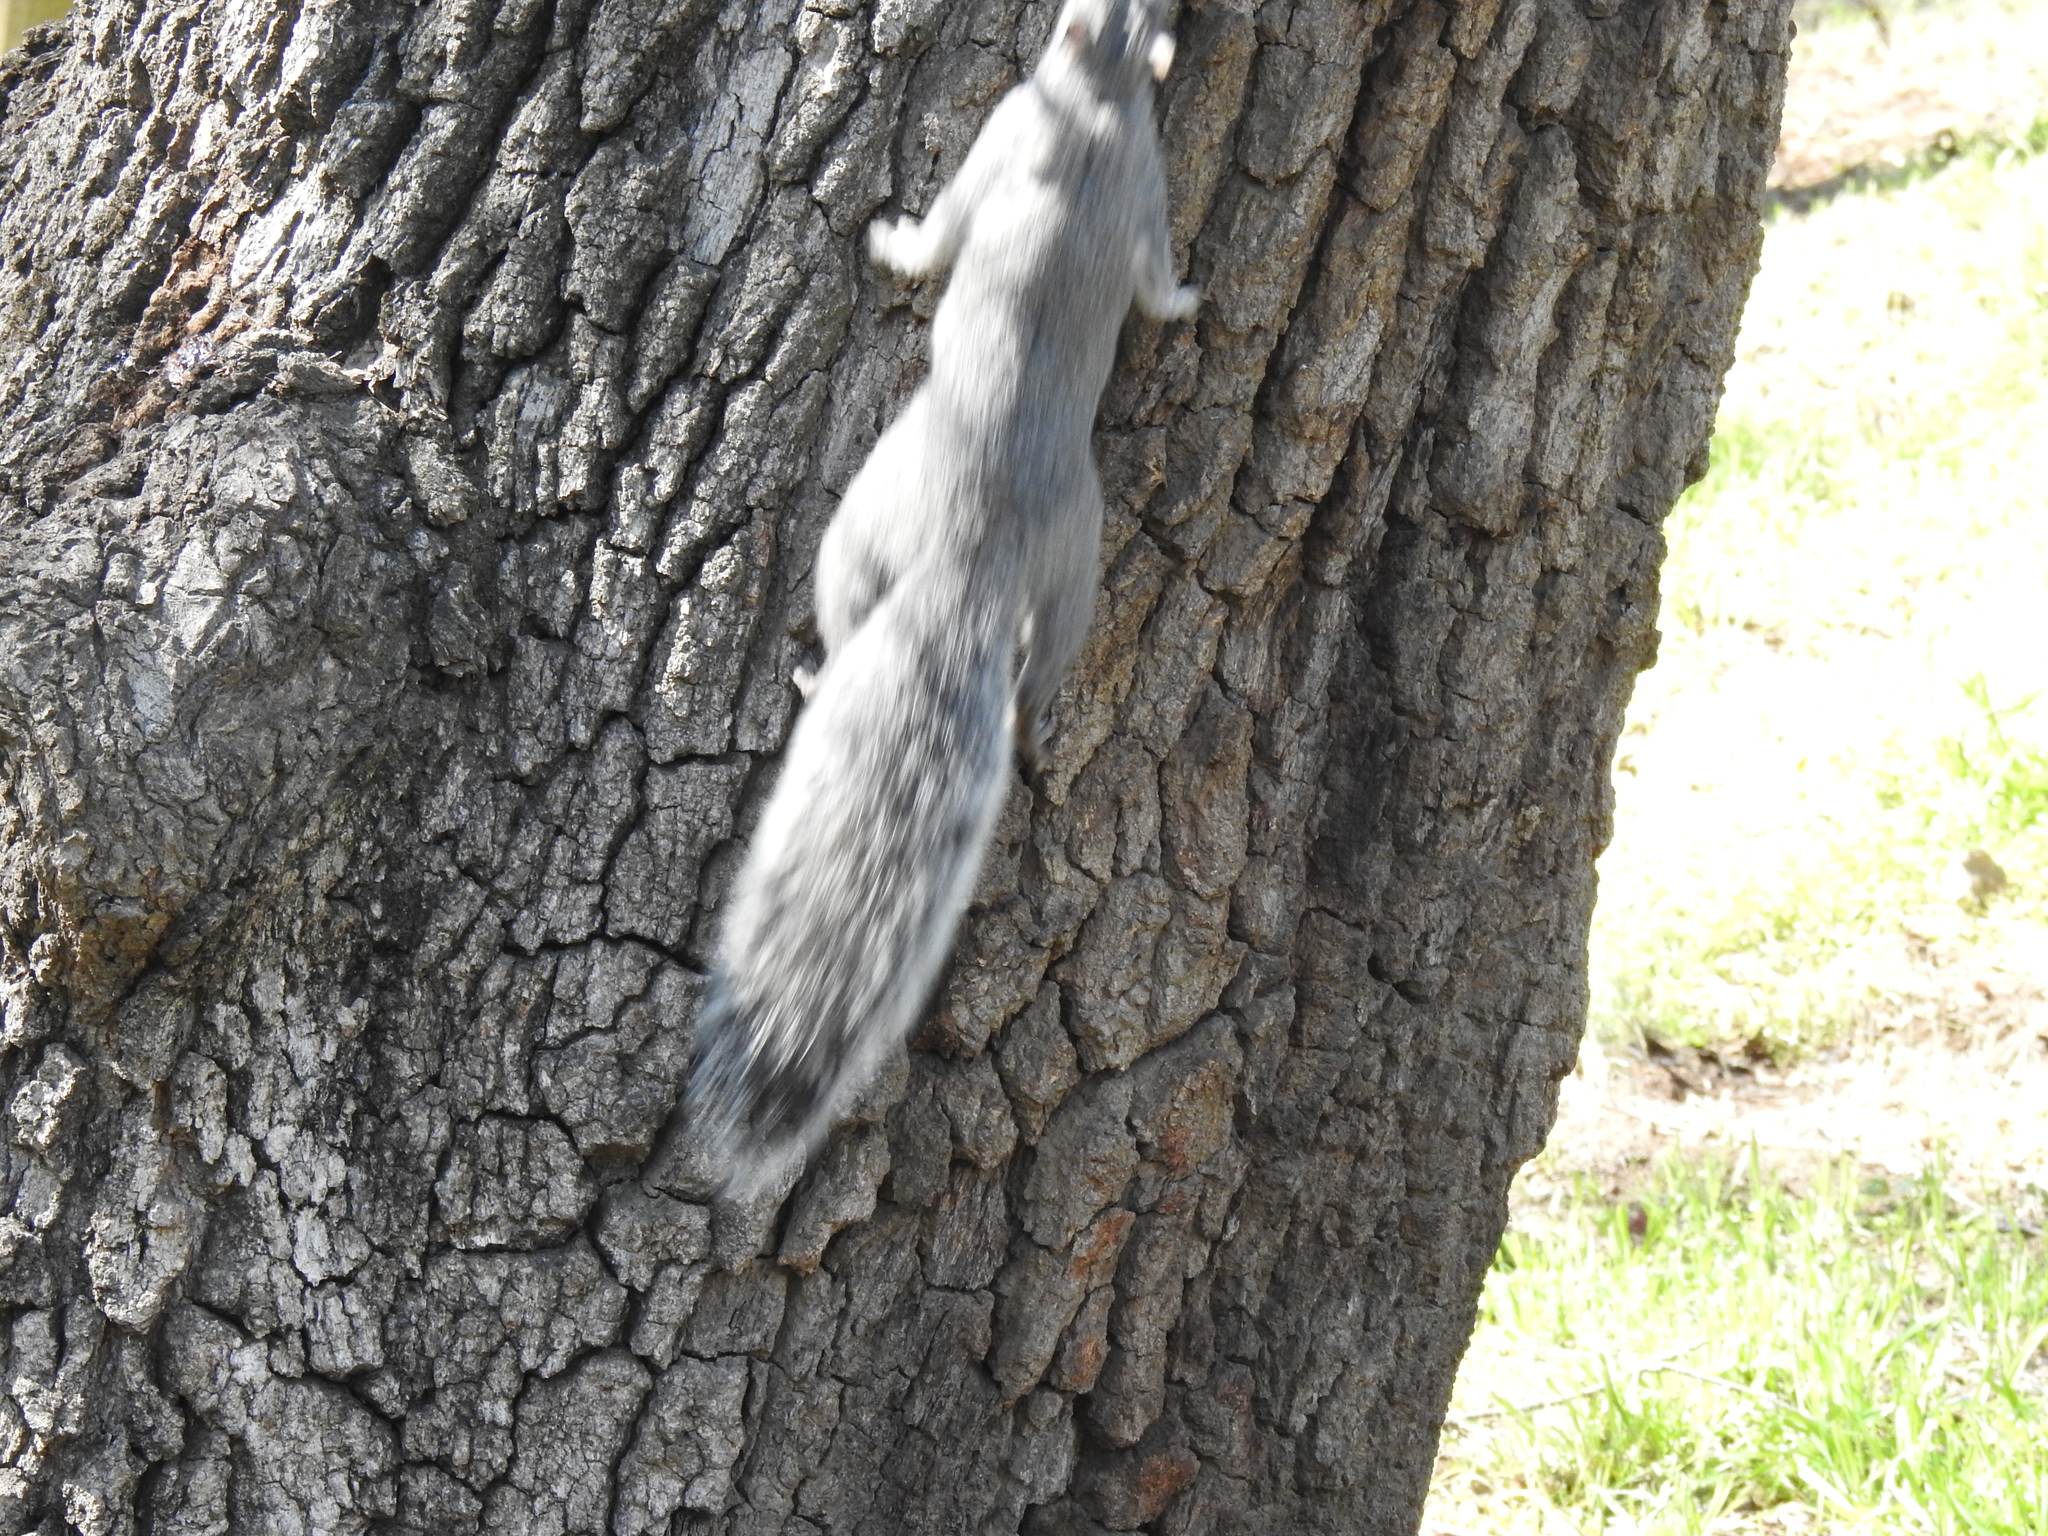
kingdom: Animalia
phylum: Chordata
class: Mammalia
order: Rodentia
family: Sciuridae
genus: Sciurus
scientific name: Sciurus griseus
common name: Western gray squirrel
